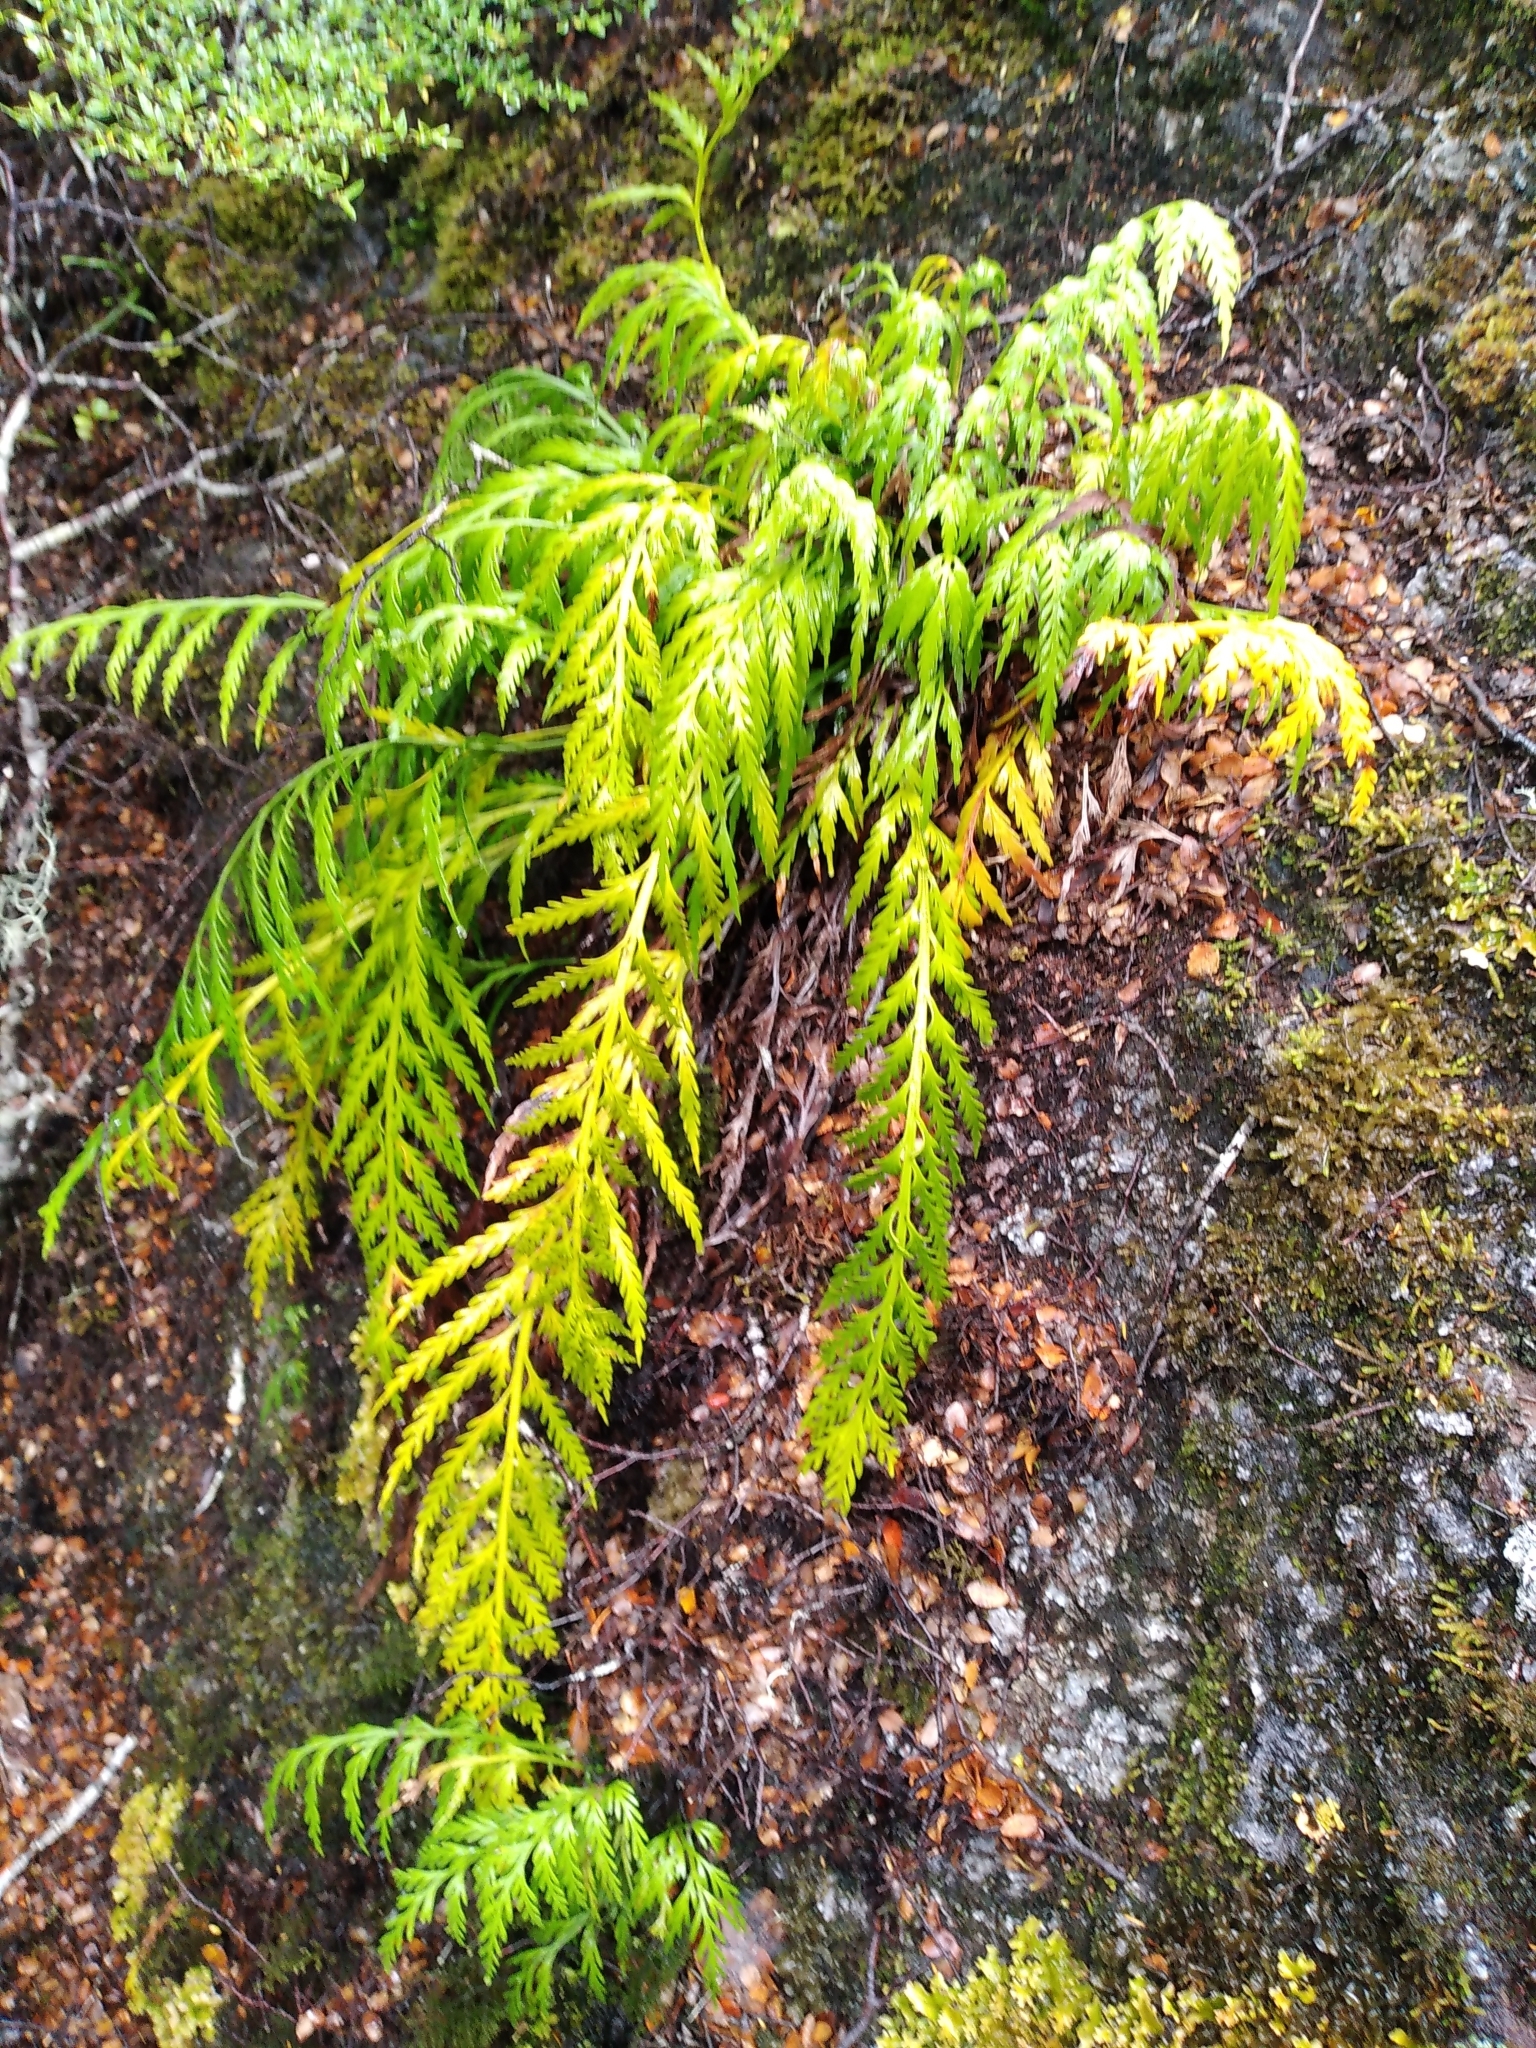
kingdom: Plantae
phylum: Tracheophyta
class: Polypodiopsida
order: Polypodiales
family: Aspleniaceae
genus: Asplenium
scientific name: Asplenium flaccidum
